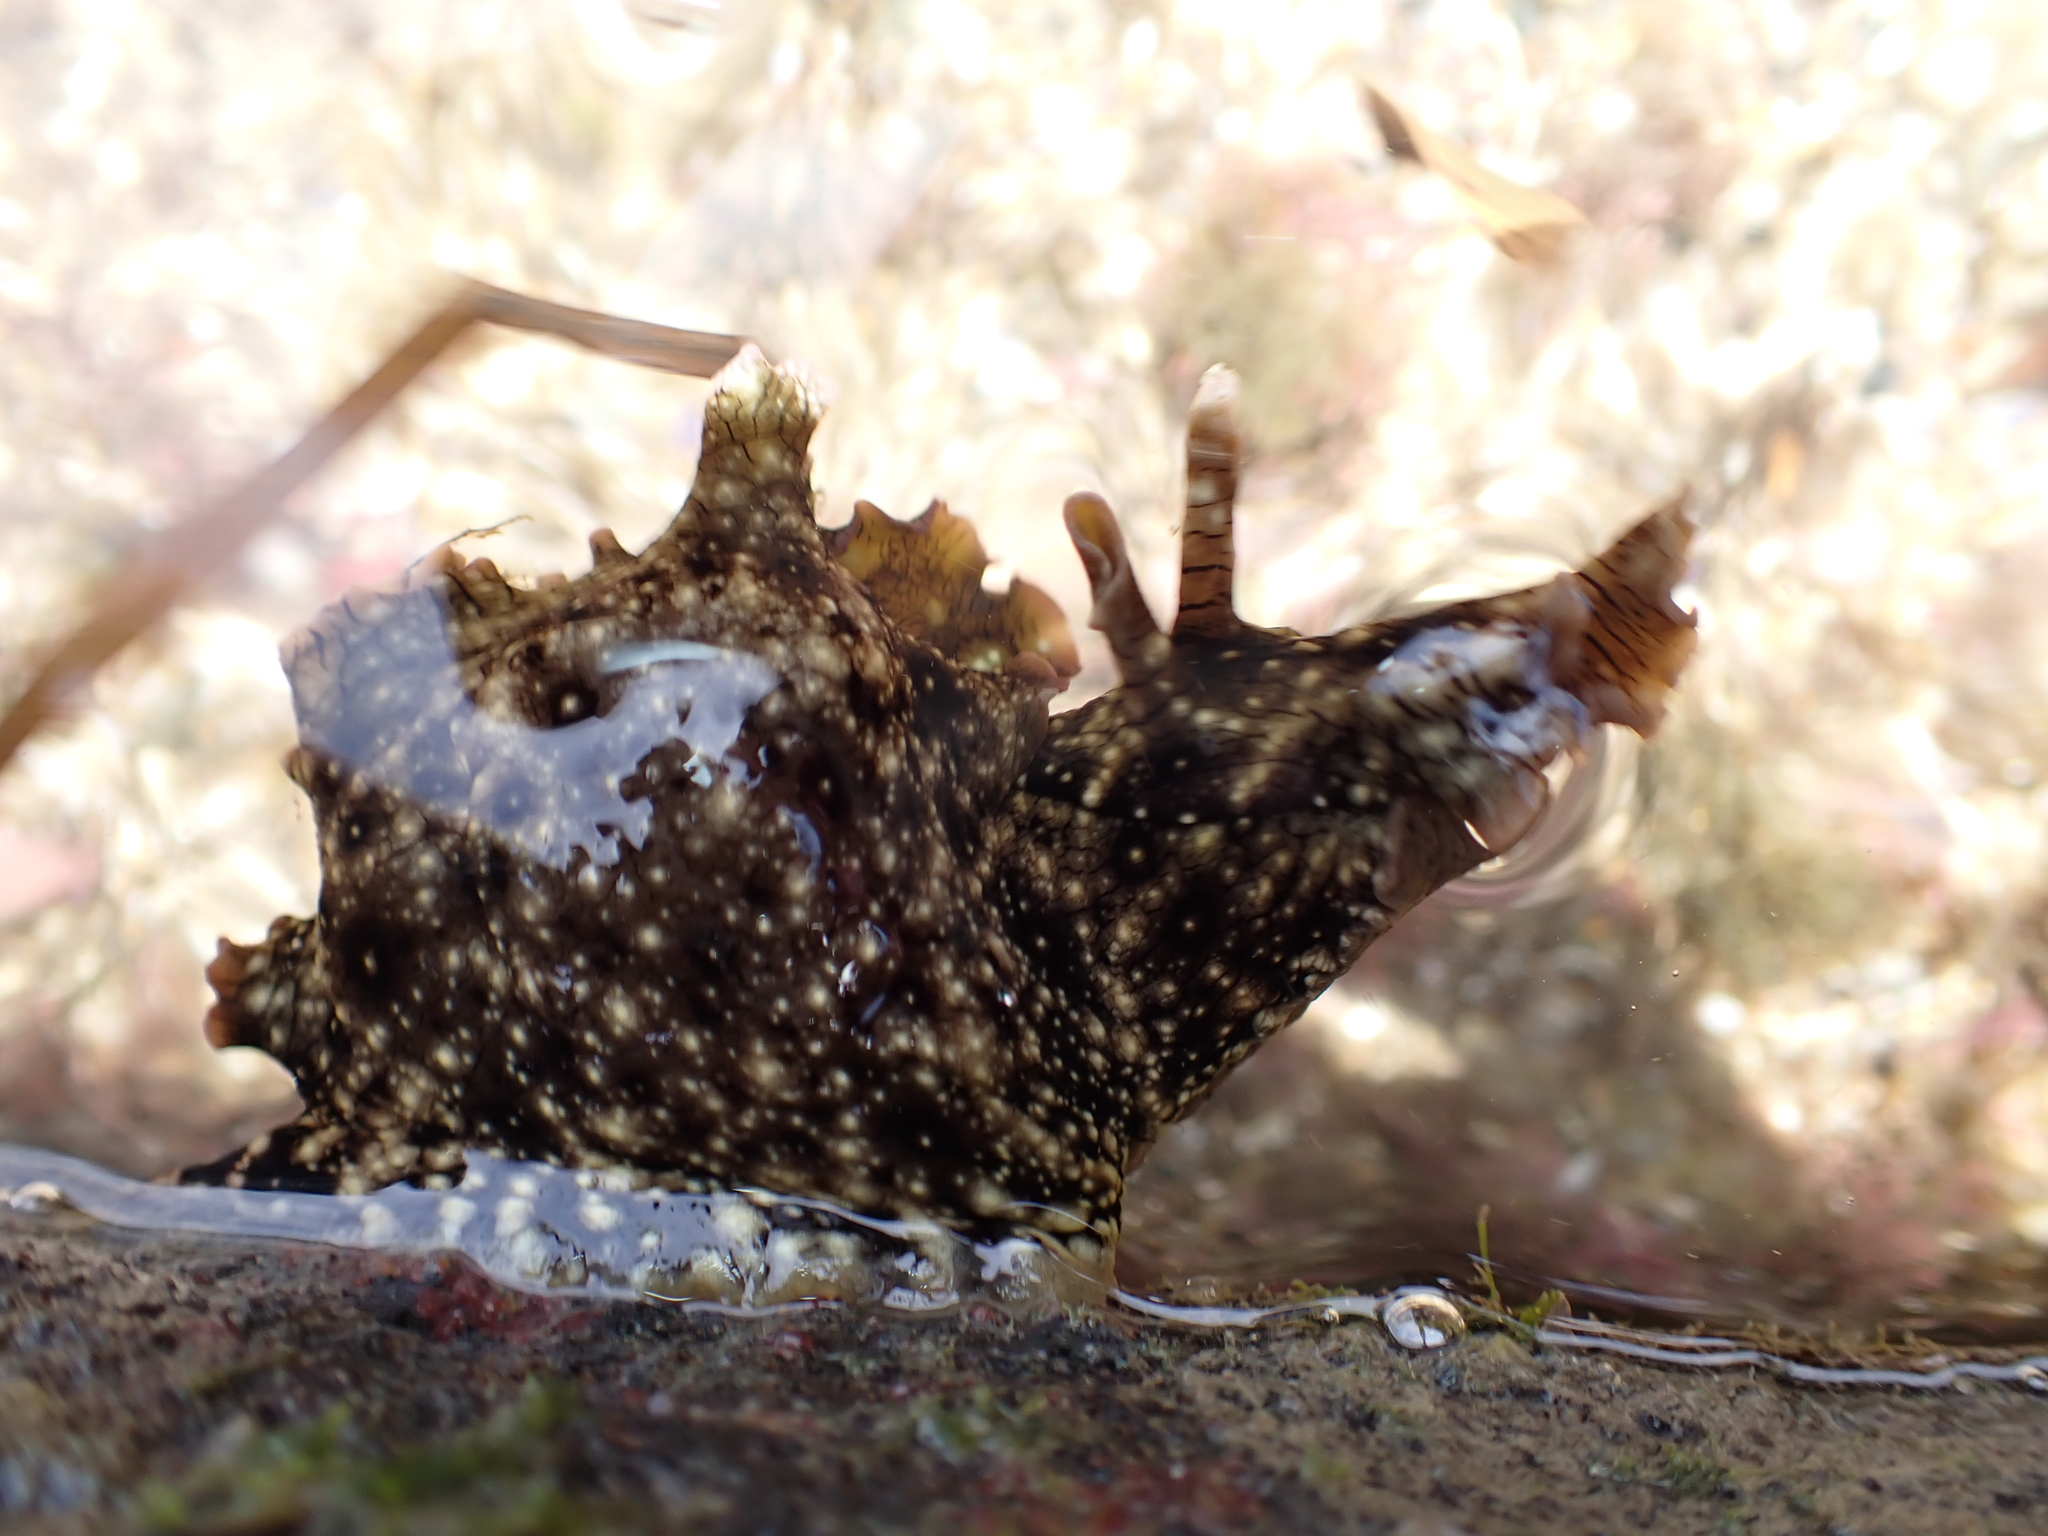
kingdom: Animalia
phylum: Mollusca
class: Gastropoda
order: Aplysiida
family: Aplysiidae
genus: Aplysia
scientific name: Aplysia argus
